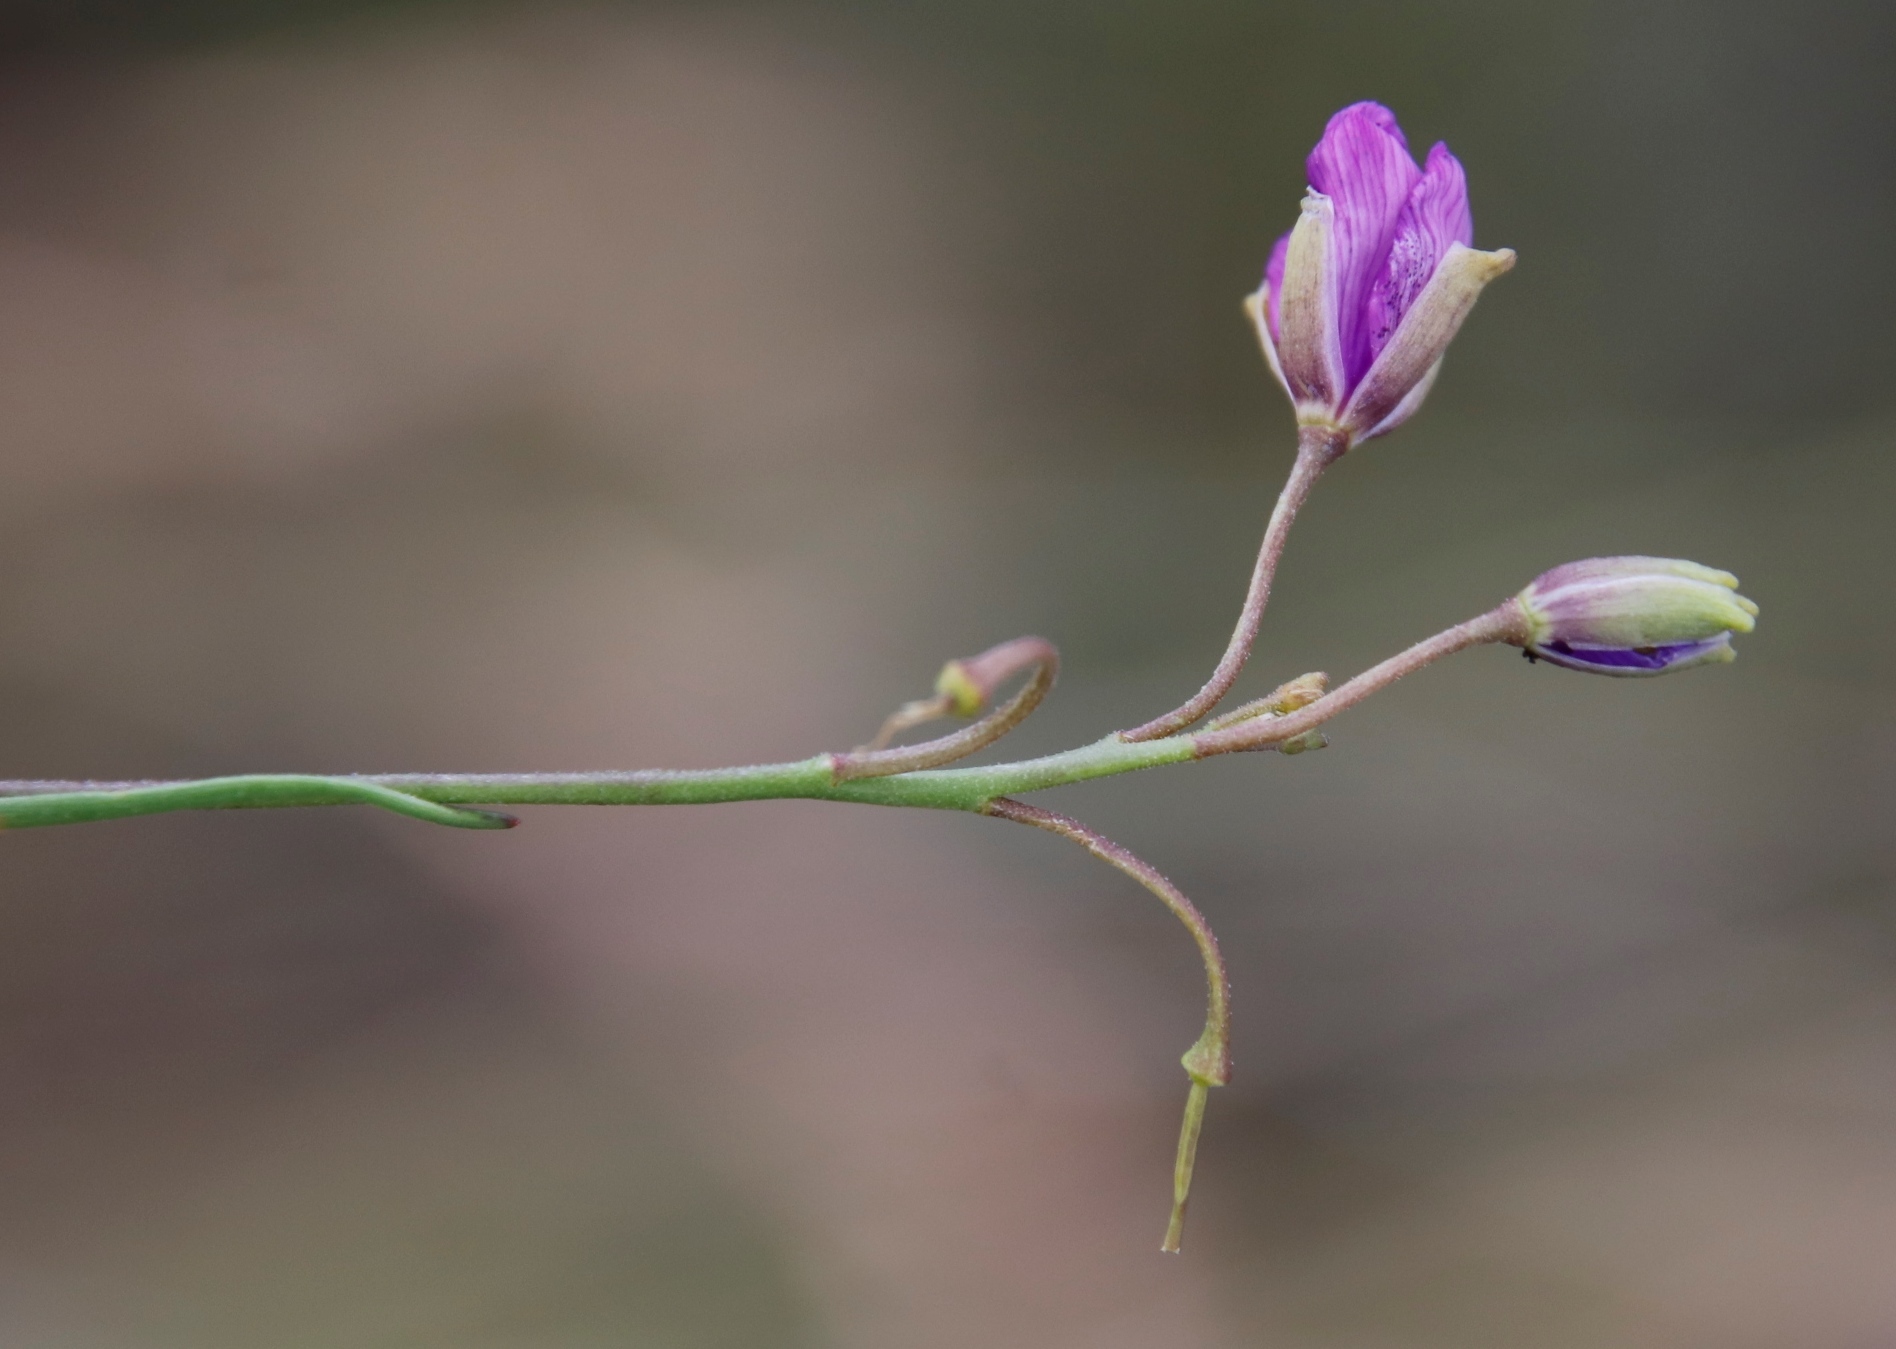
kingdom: Plantae
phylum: Tracheophyta
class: Magnoliopsida
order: Brassicales
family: Brassicaceae
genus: Heliophila
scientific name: Heliophila suavissima
